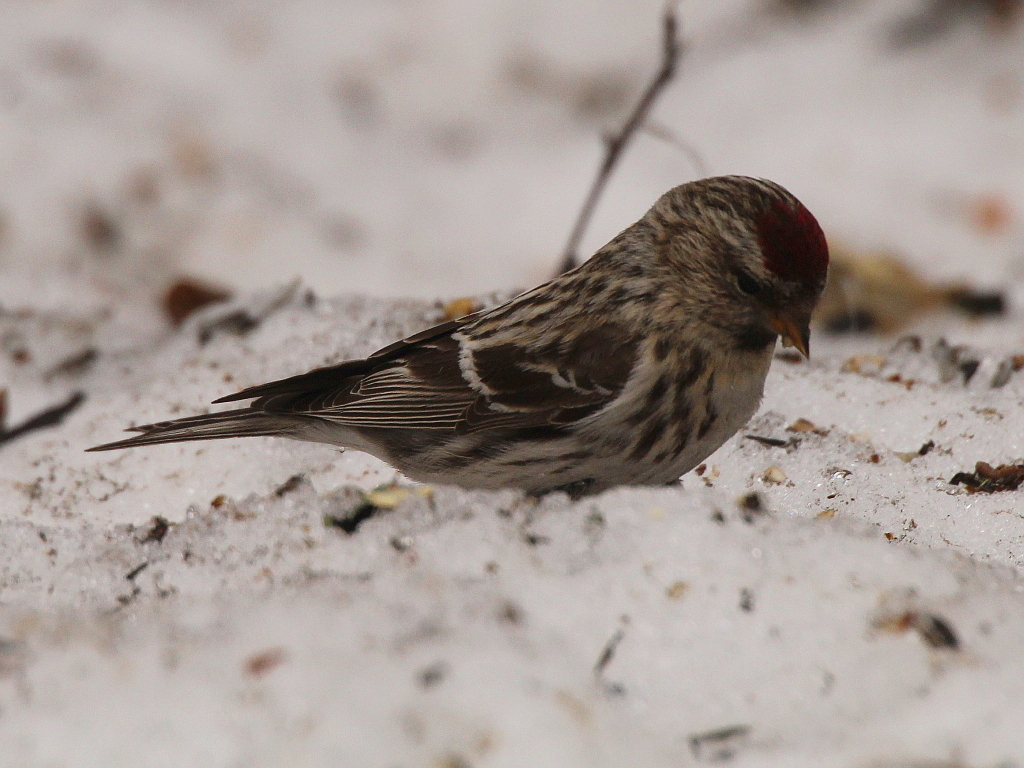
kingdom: Animalia
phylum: Chordata
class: Aves
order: Passeriformes
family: Fringillidae
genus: Acanthis
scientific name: Acanthis flammea
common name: Common redpoll
